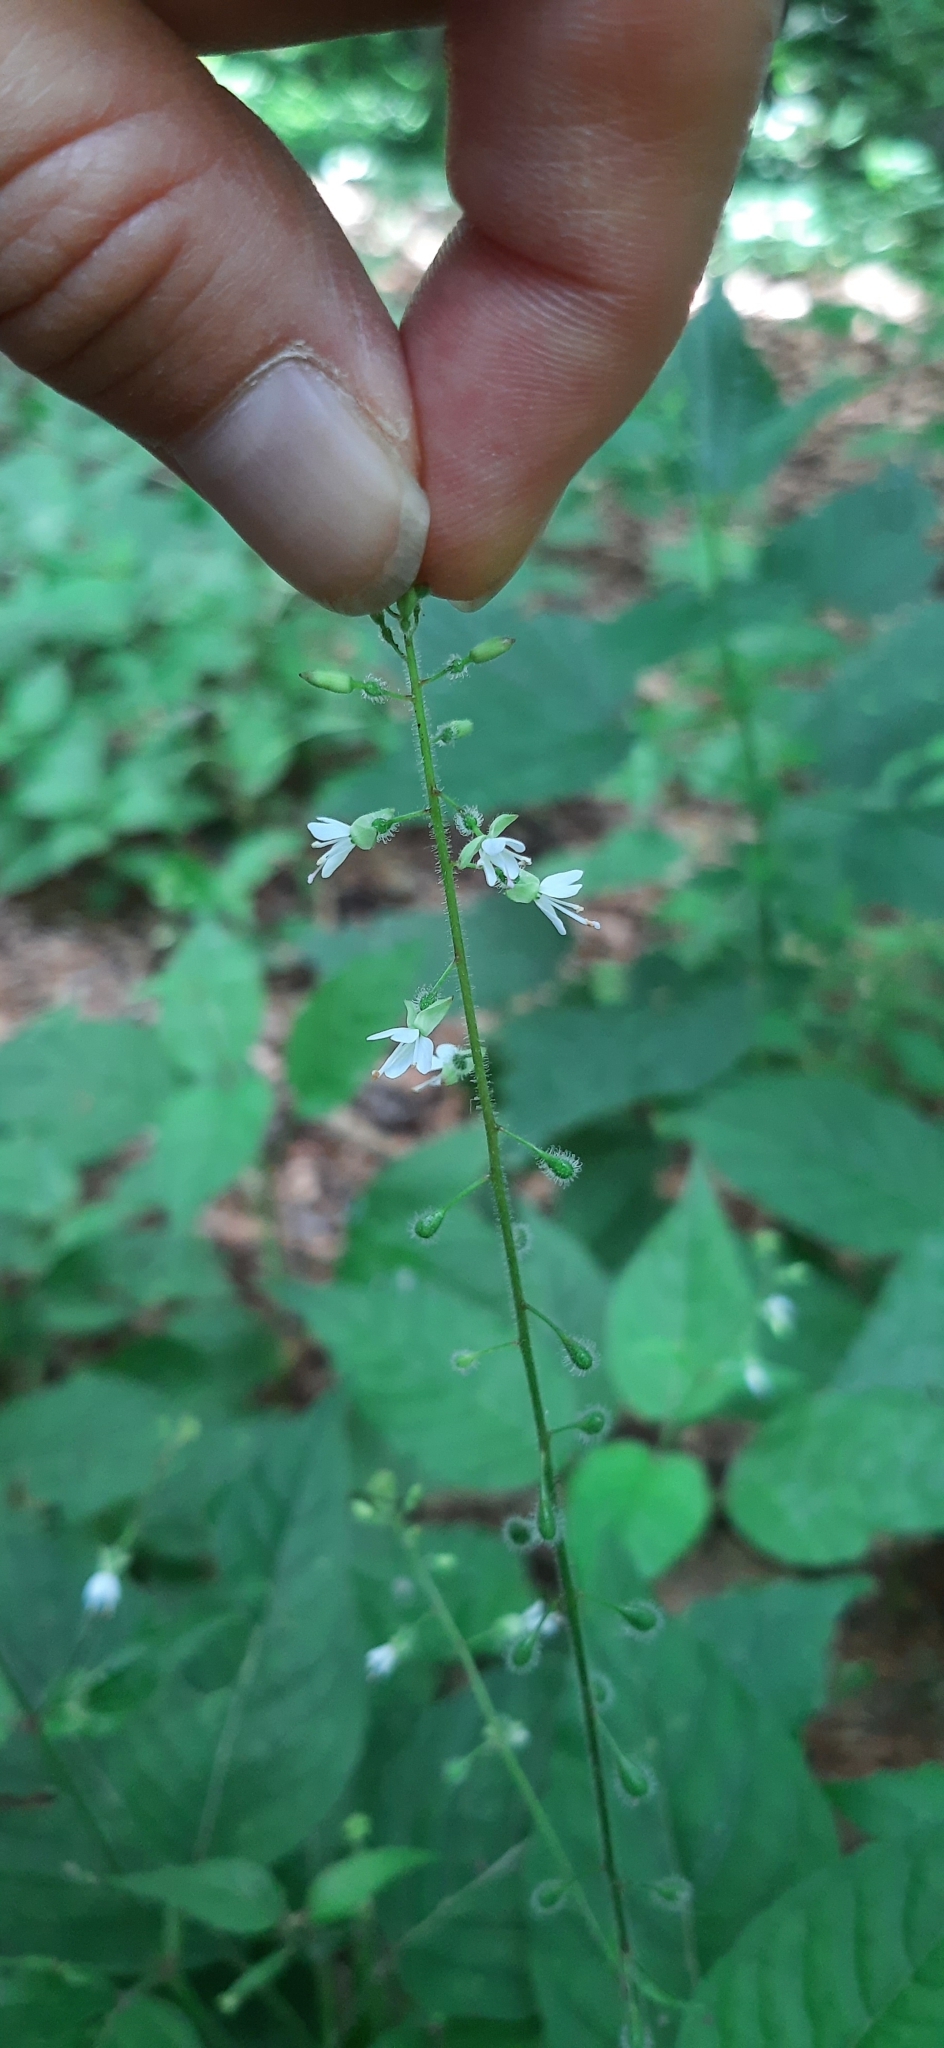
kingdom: Plantae
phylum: Tracheophyta
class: Magnoliopsida
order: Myrtales
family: Onagraceae
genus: Circaea
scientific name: Circaea lutetiana
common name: Enchanter's-nightshade
